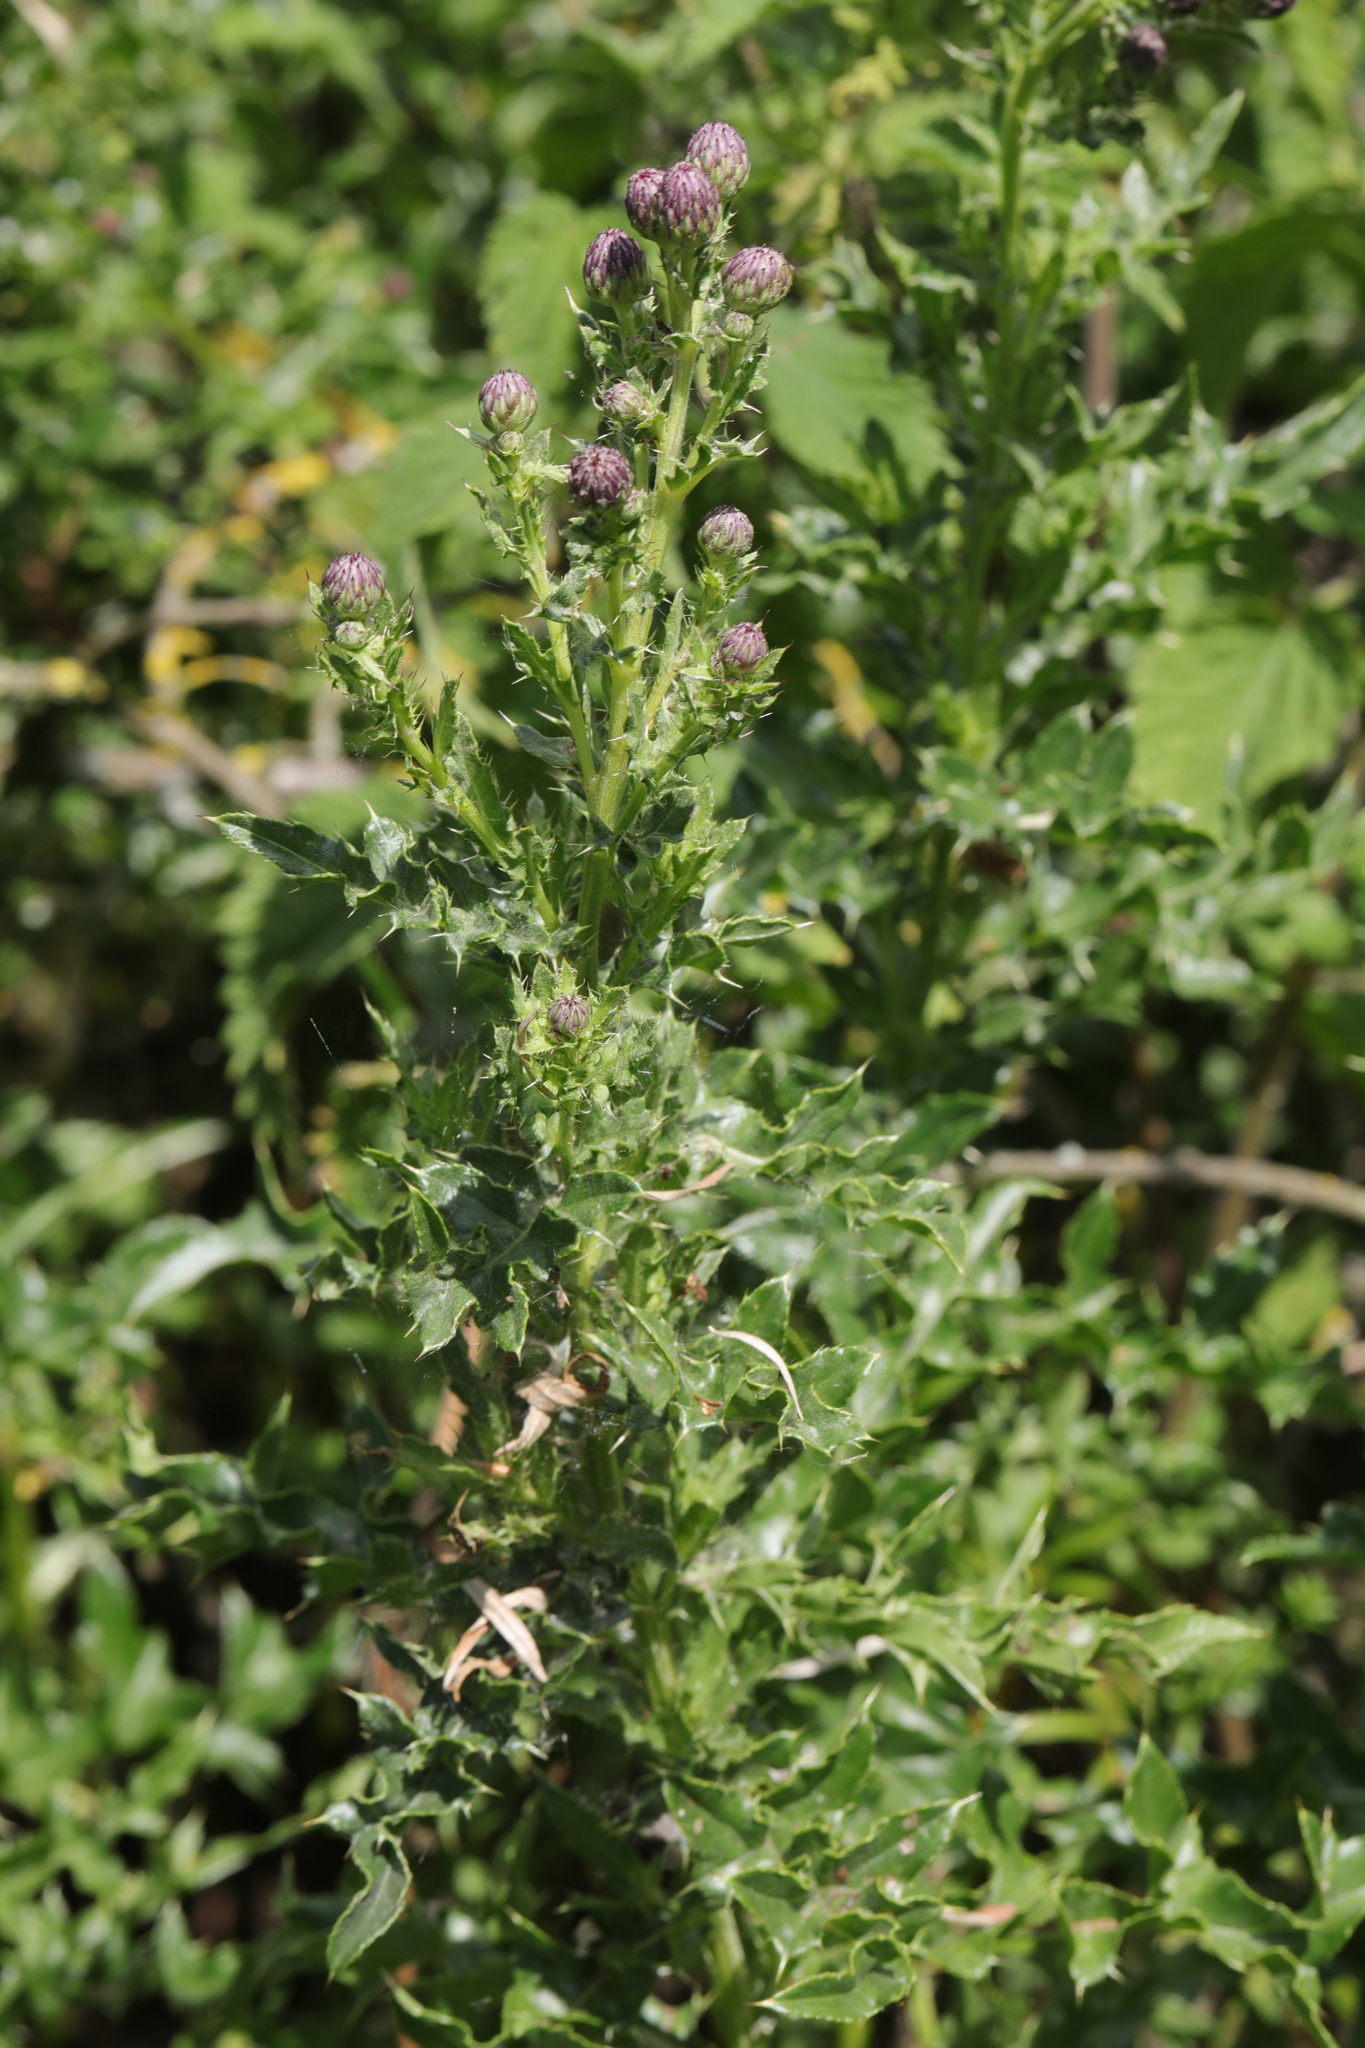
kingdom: Plantae
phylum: Tracheophyta
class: Magnoliopsida
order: Asterales
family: Asteraceae
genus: Cirsium
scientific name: Cirsium arvense
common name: Creeping thistle
